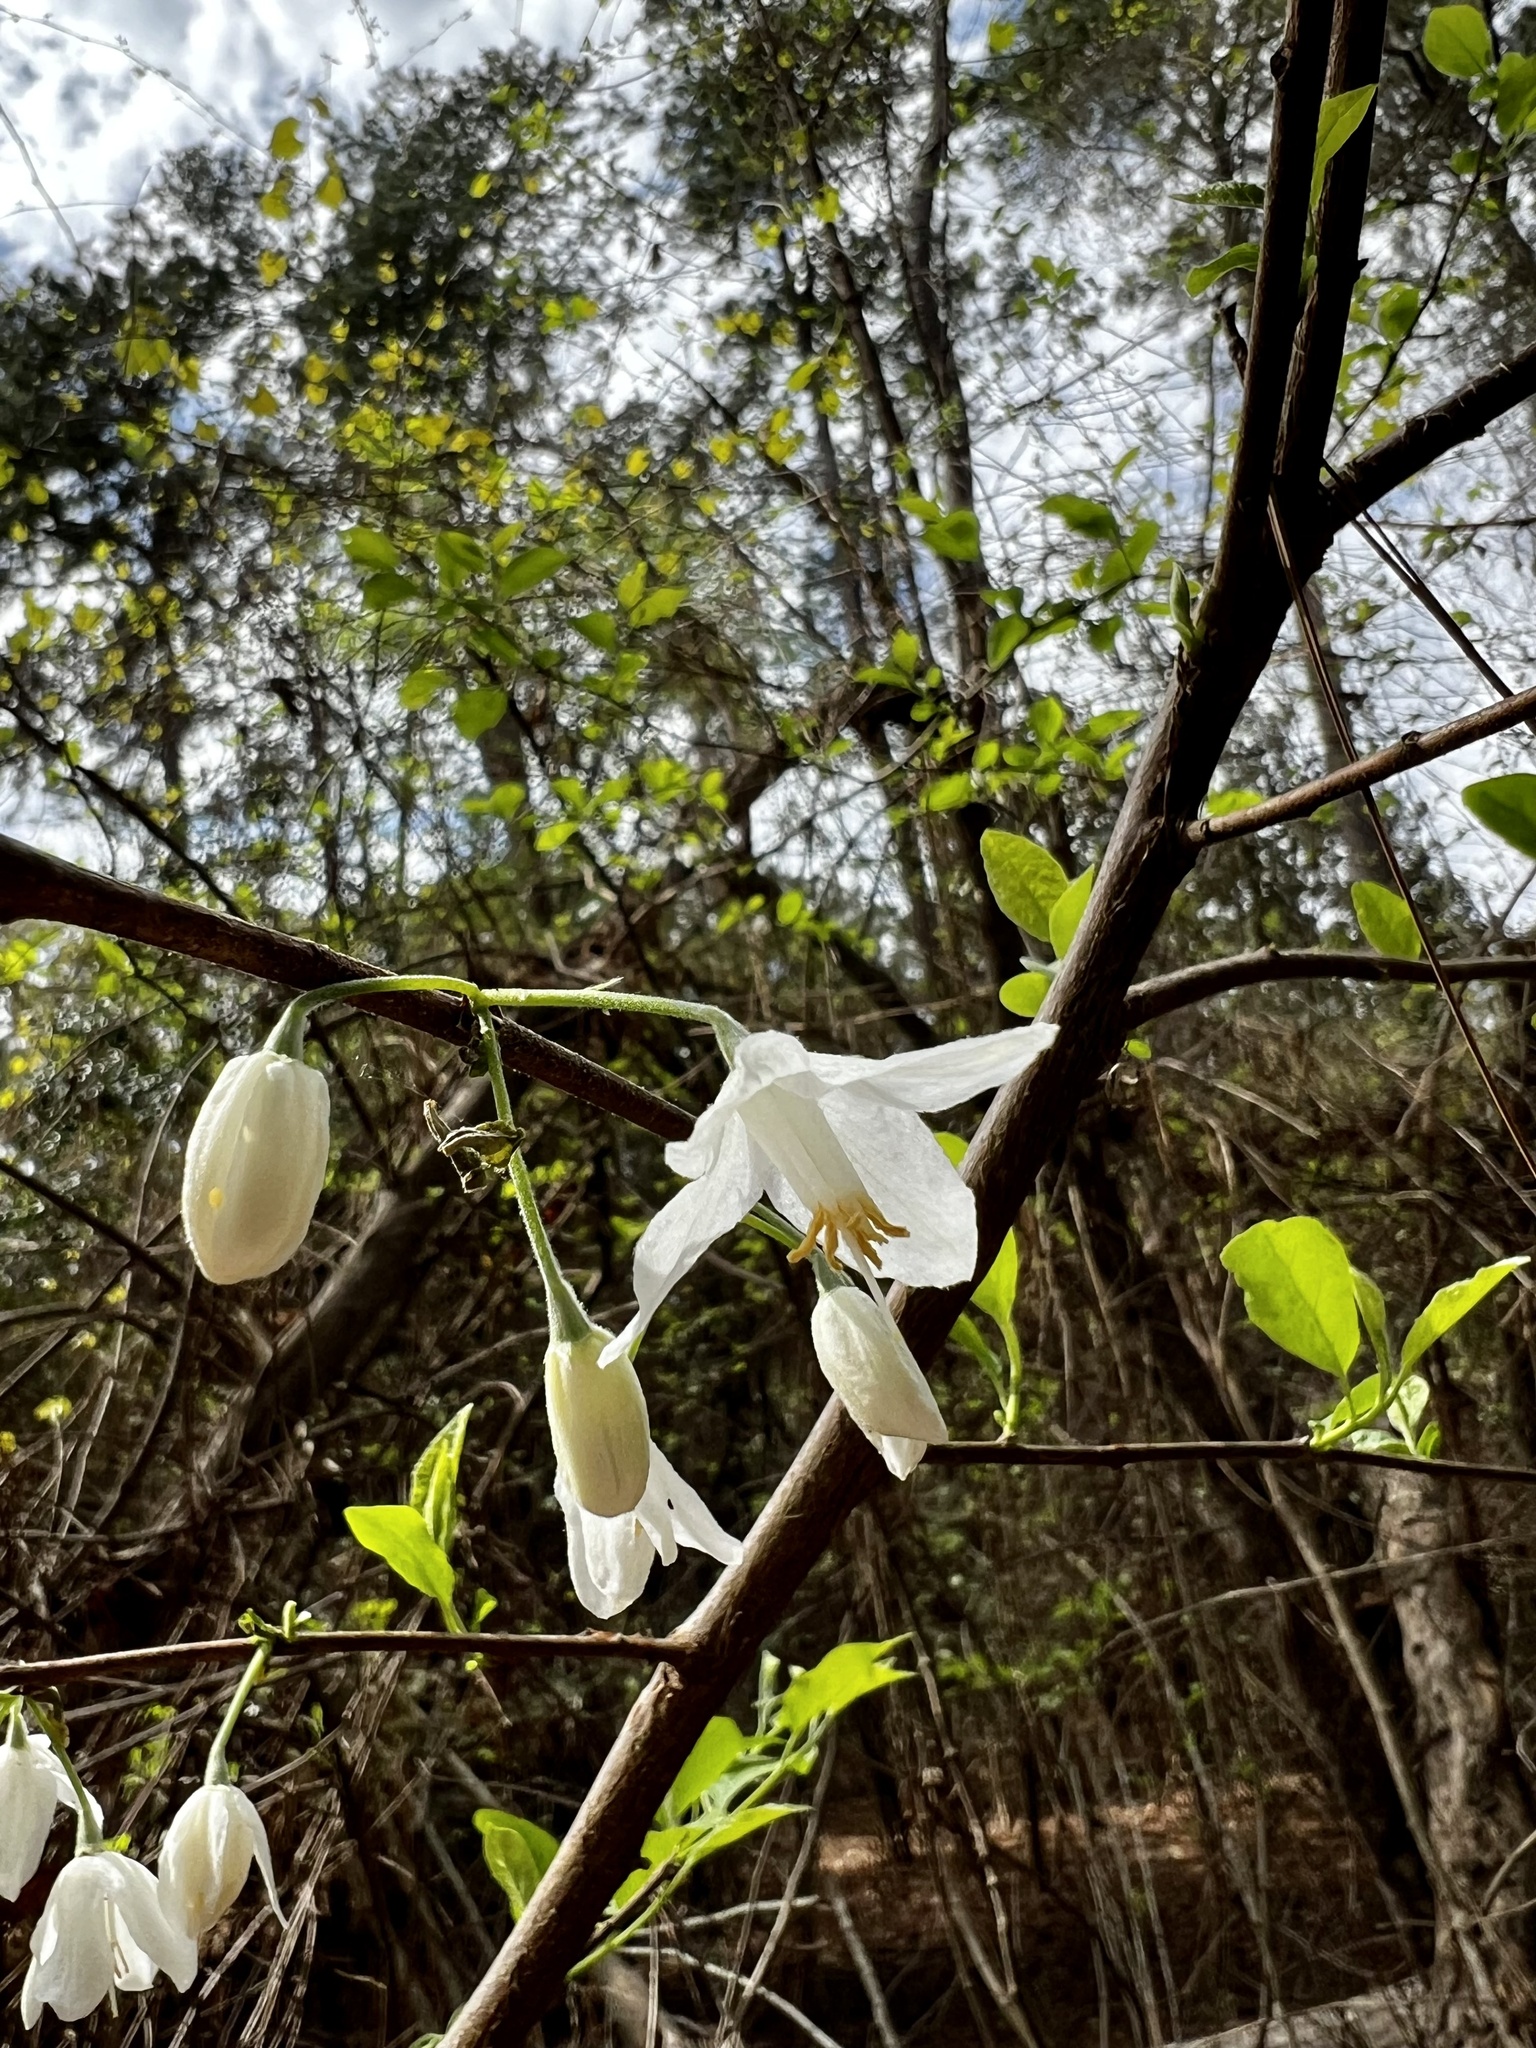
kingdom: Plantae
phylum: Tracheophyta
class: Magnoliopsida
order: Ericales
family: Styracaceae
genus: Halesia
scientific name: Halesia diptera
